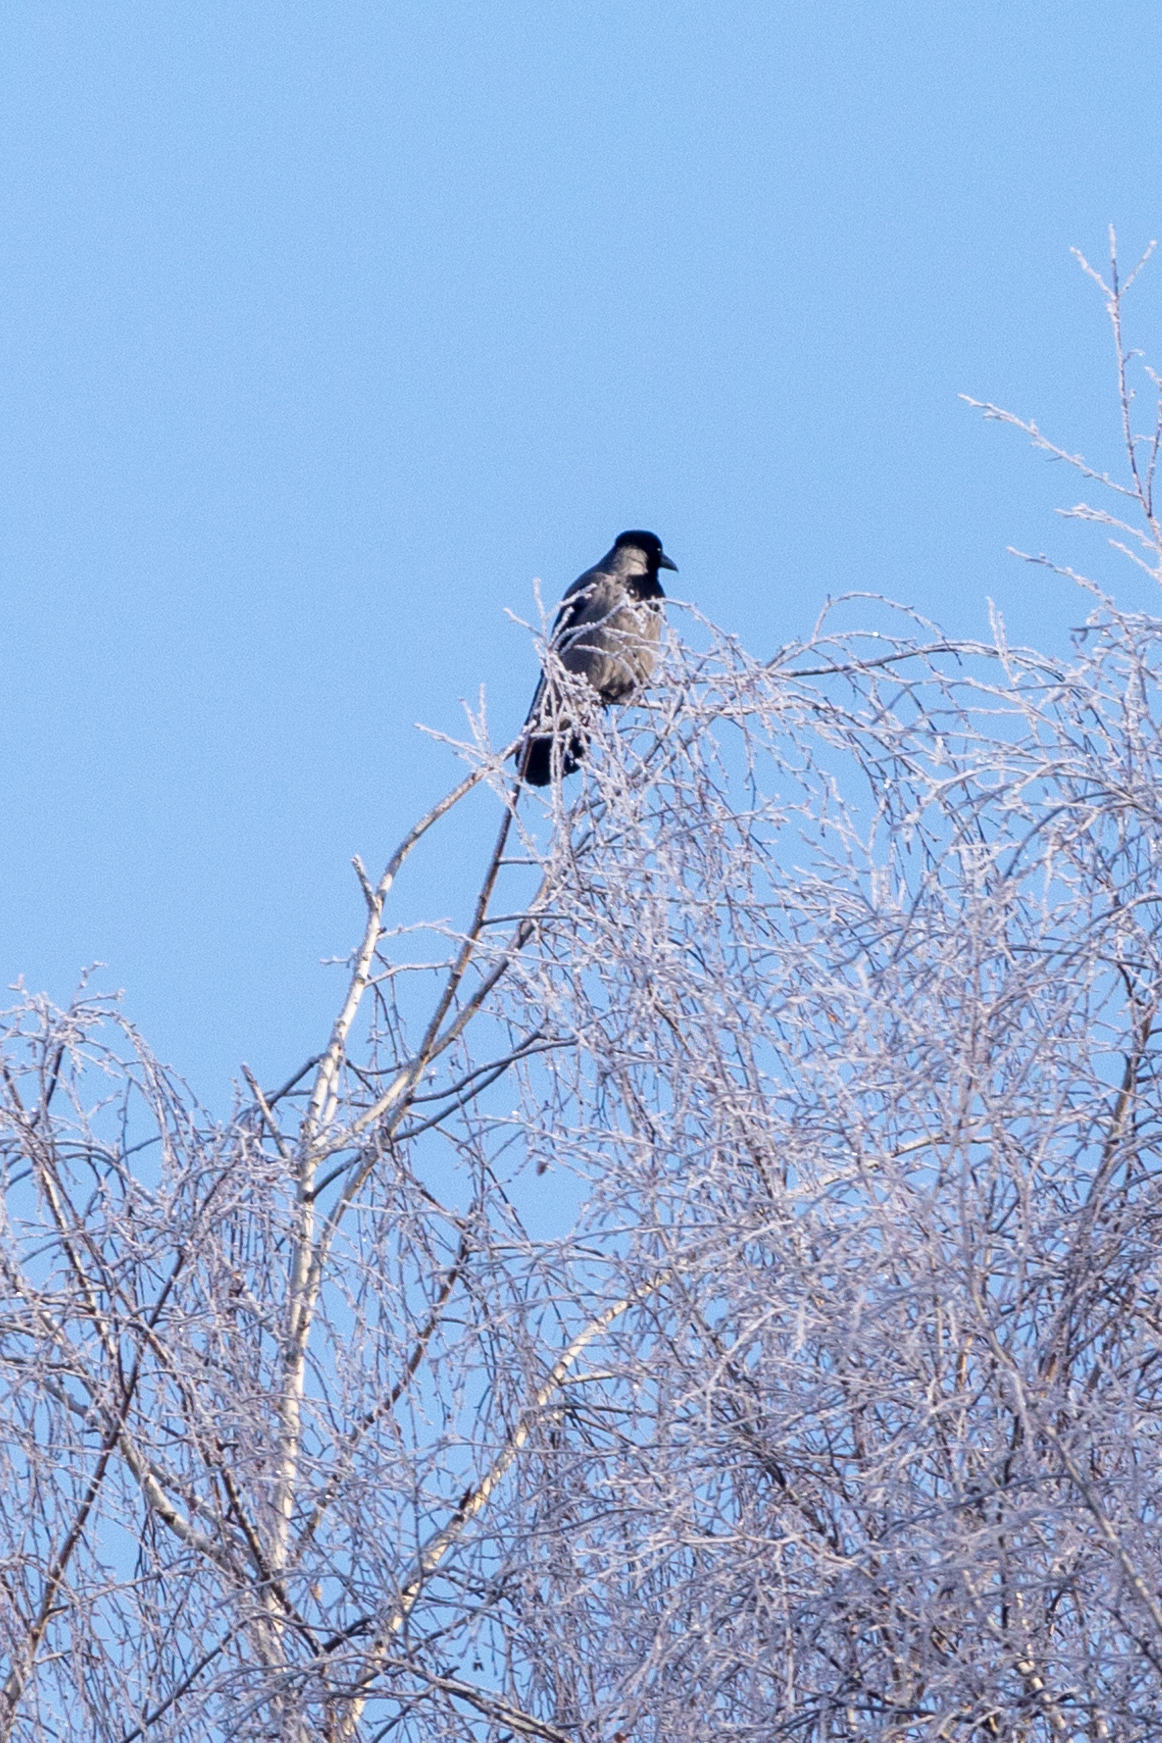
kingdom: Animalia
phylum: Chordata
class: Aves
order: Passeriformes
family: Corvidae
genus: Corvus
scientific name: Corvus cornix
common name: Hooded crow
